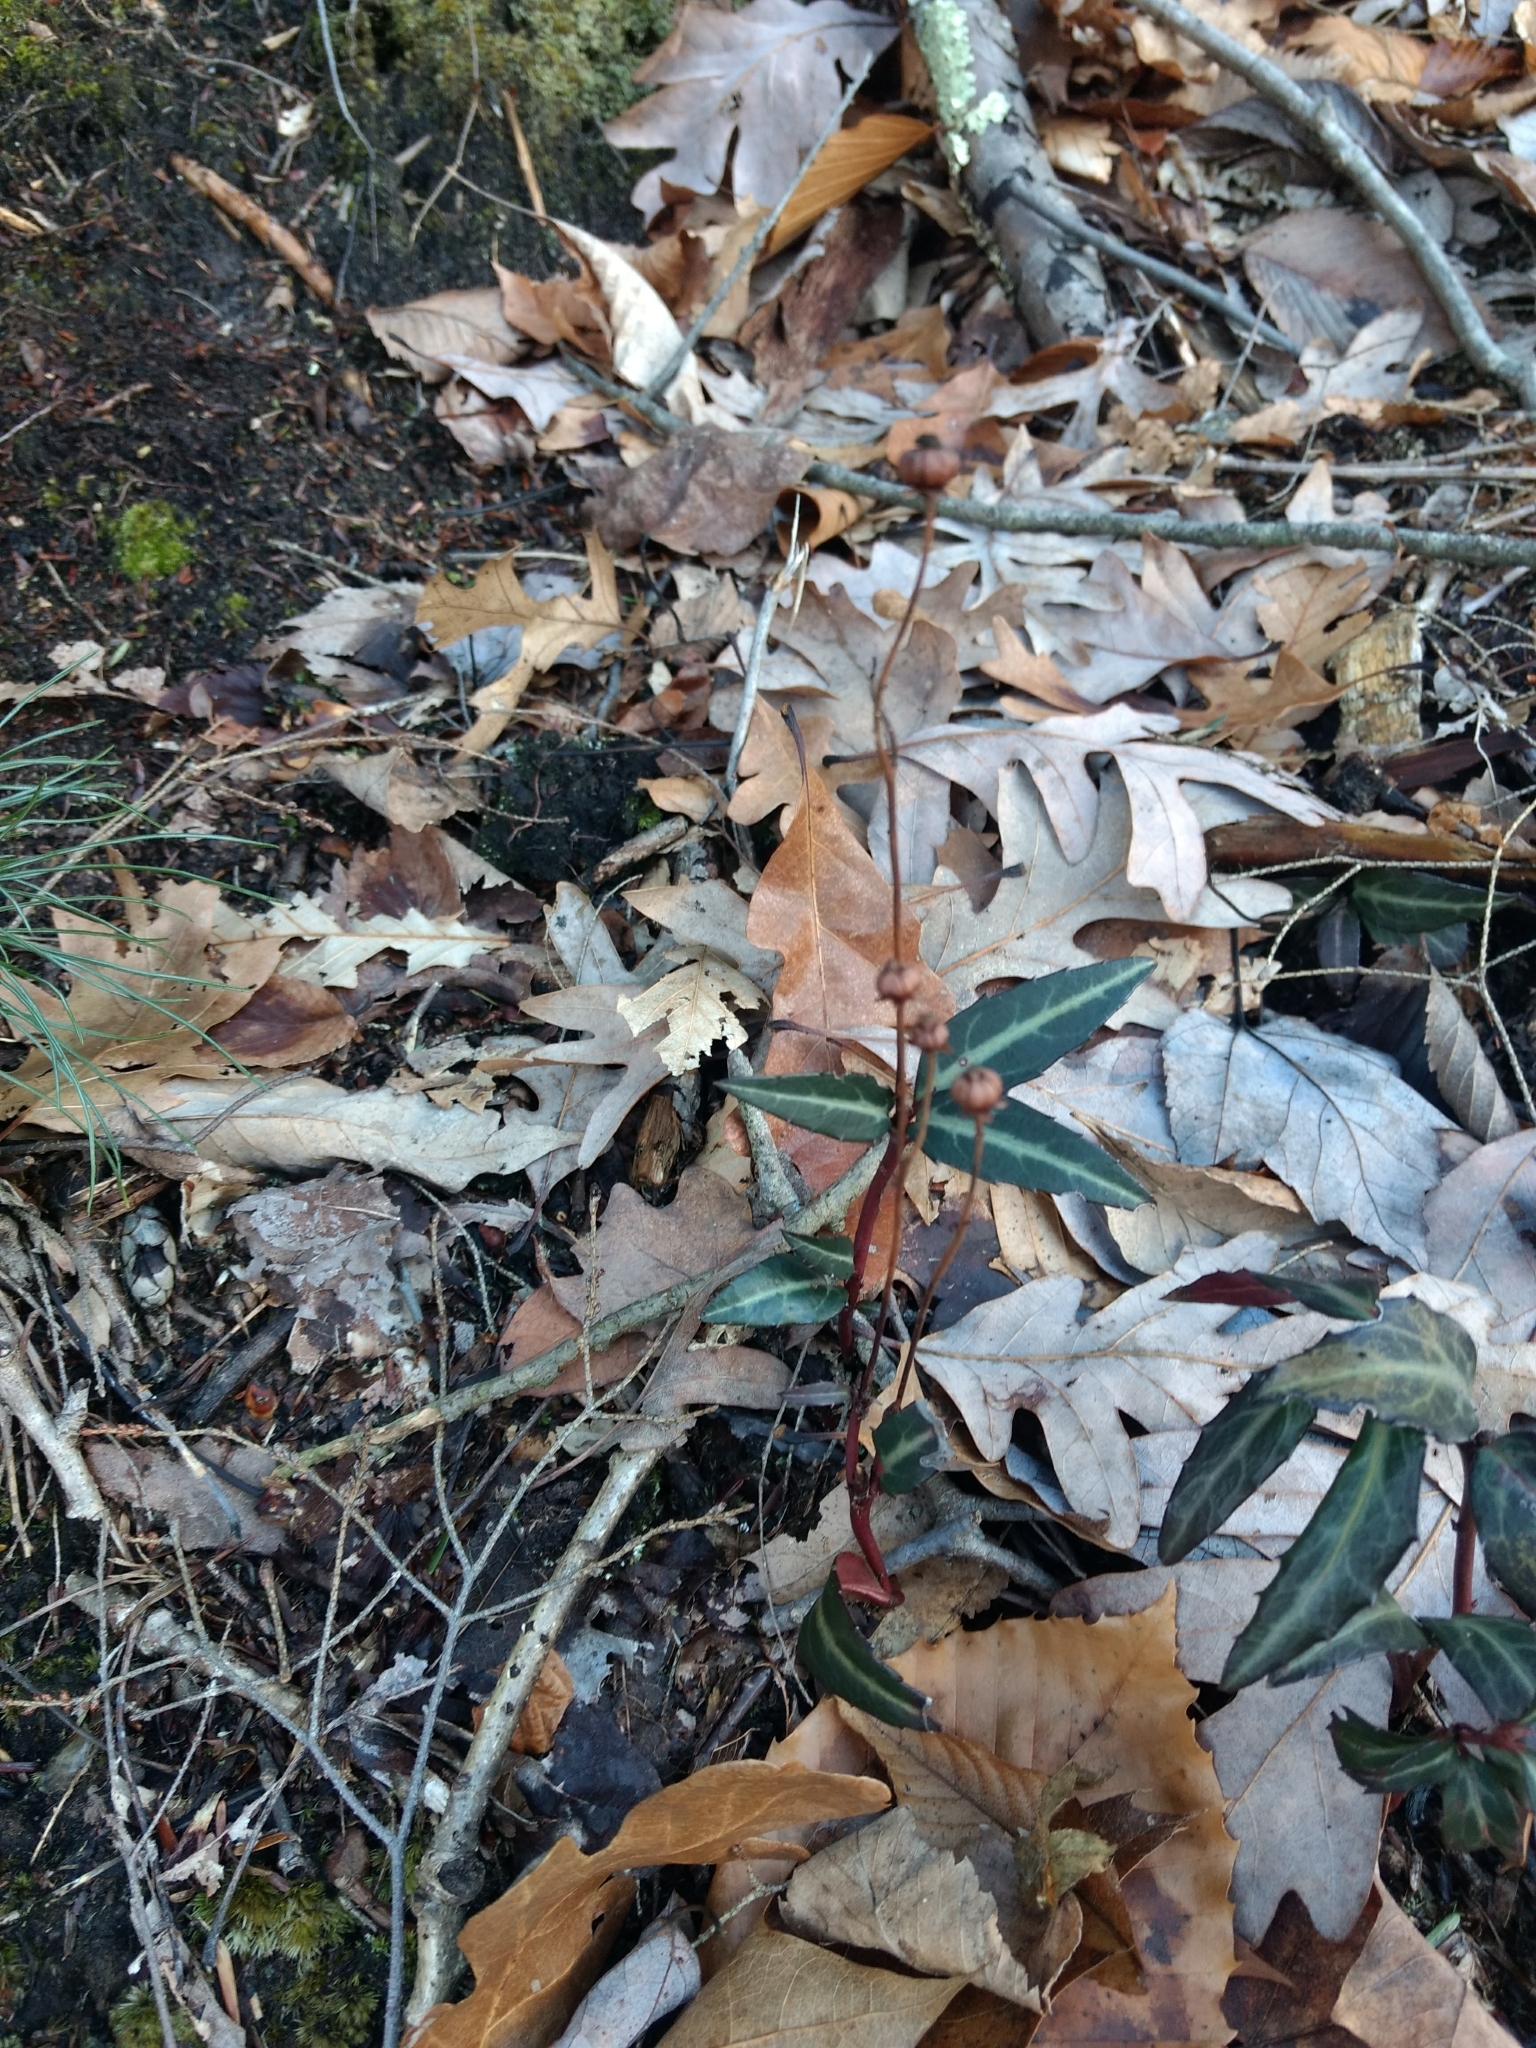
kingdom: Plantae
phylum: Tracheophyta
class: Magnoliopsida
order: Ericales
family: Ericaceae
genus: Chimaphila
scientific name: Chimaphila maculata
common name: Spotted pipsissewa
